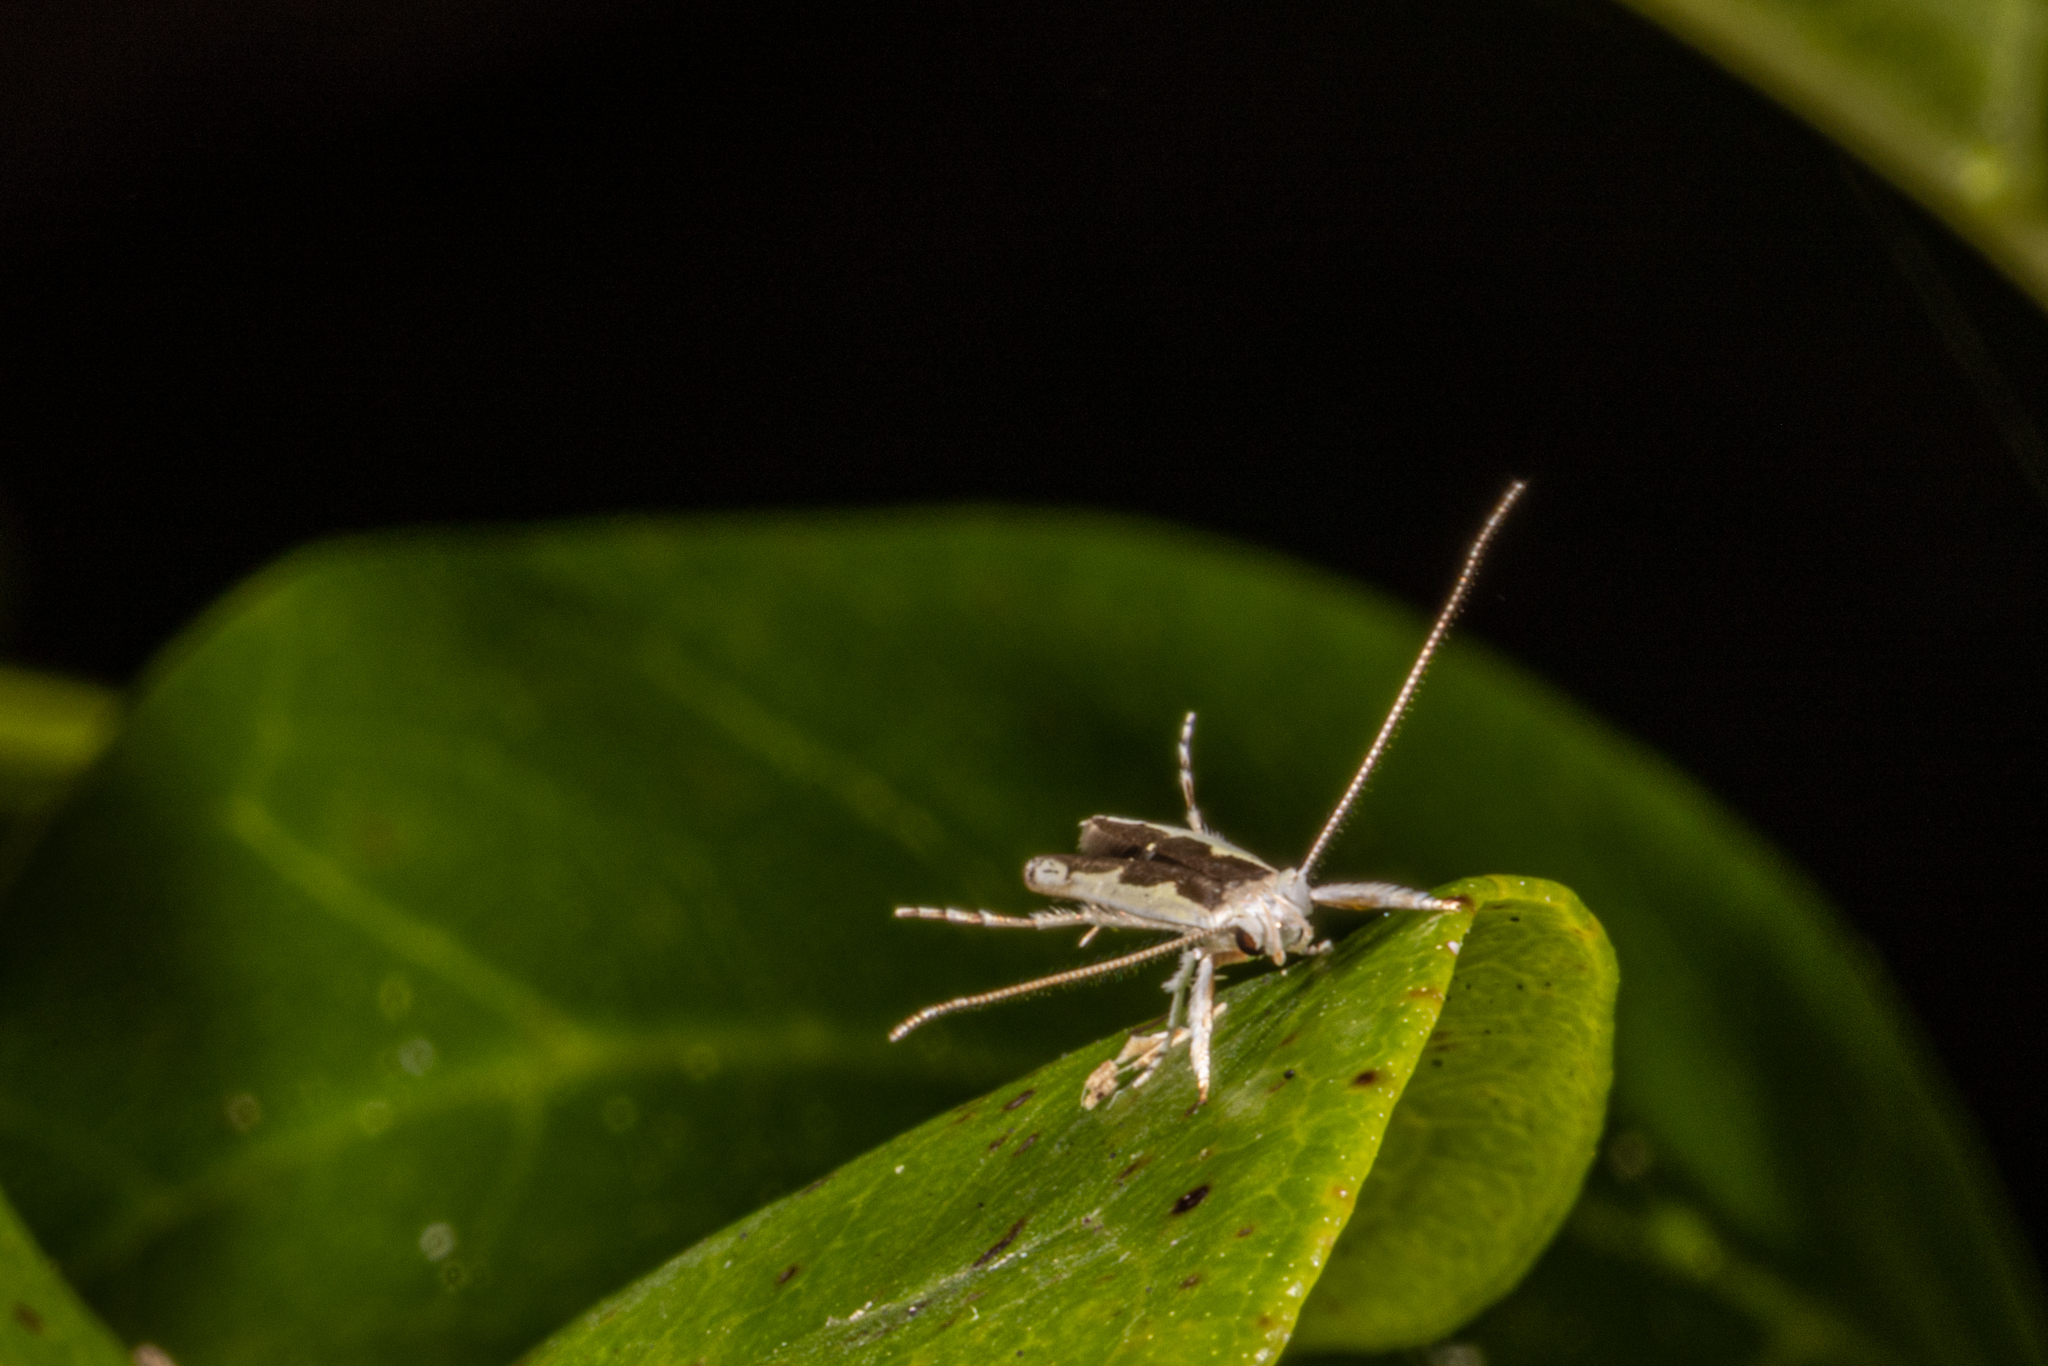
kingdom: Animalia
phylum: Arthropoda
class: Insecta
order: Lepidoptera
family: Roeslerstammiidae
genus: Vanicela
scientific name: Vanicela disjunctella
